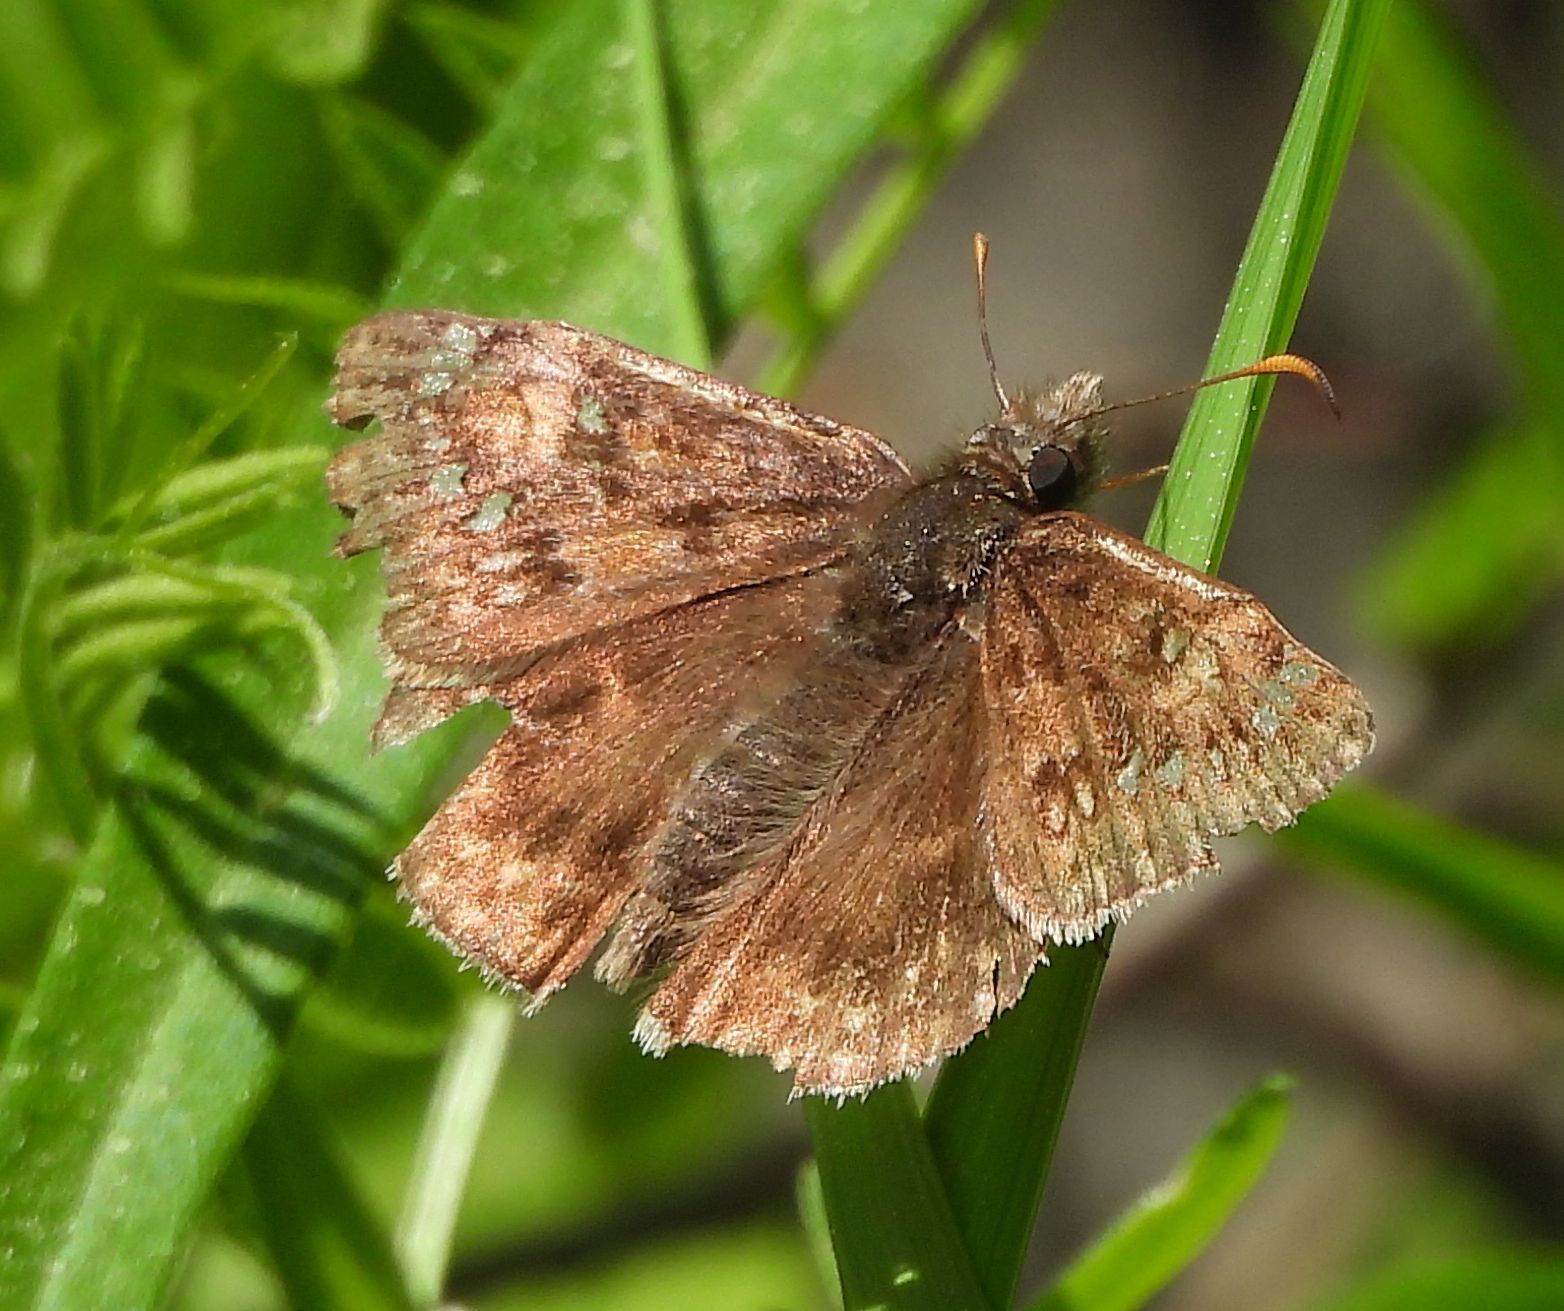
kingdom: Animalia
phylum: Arthropoda
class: Insecta
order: Lepidoptera
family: Hesperiidae
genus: Erynnis
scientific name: Erynnis juvenalis
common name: Juvenal's duskywing
